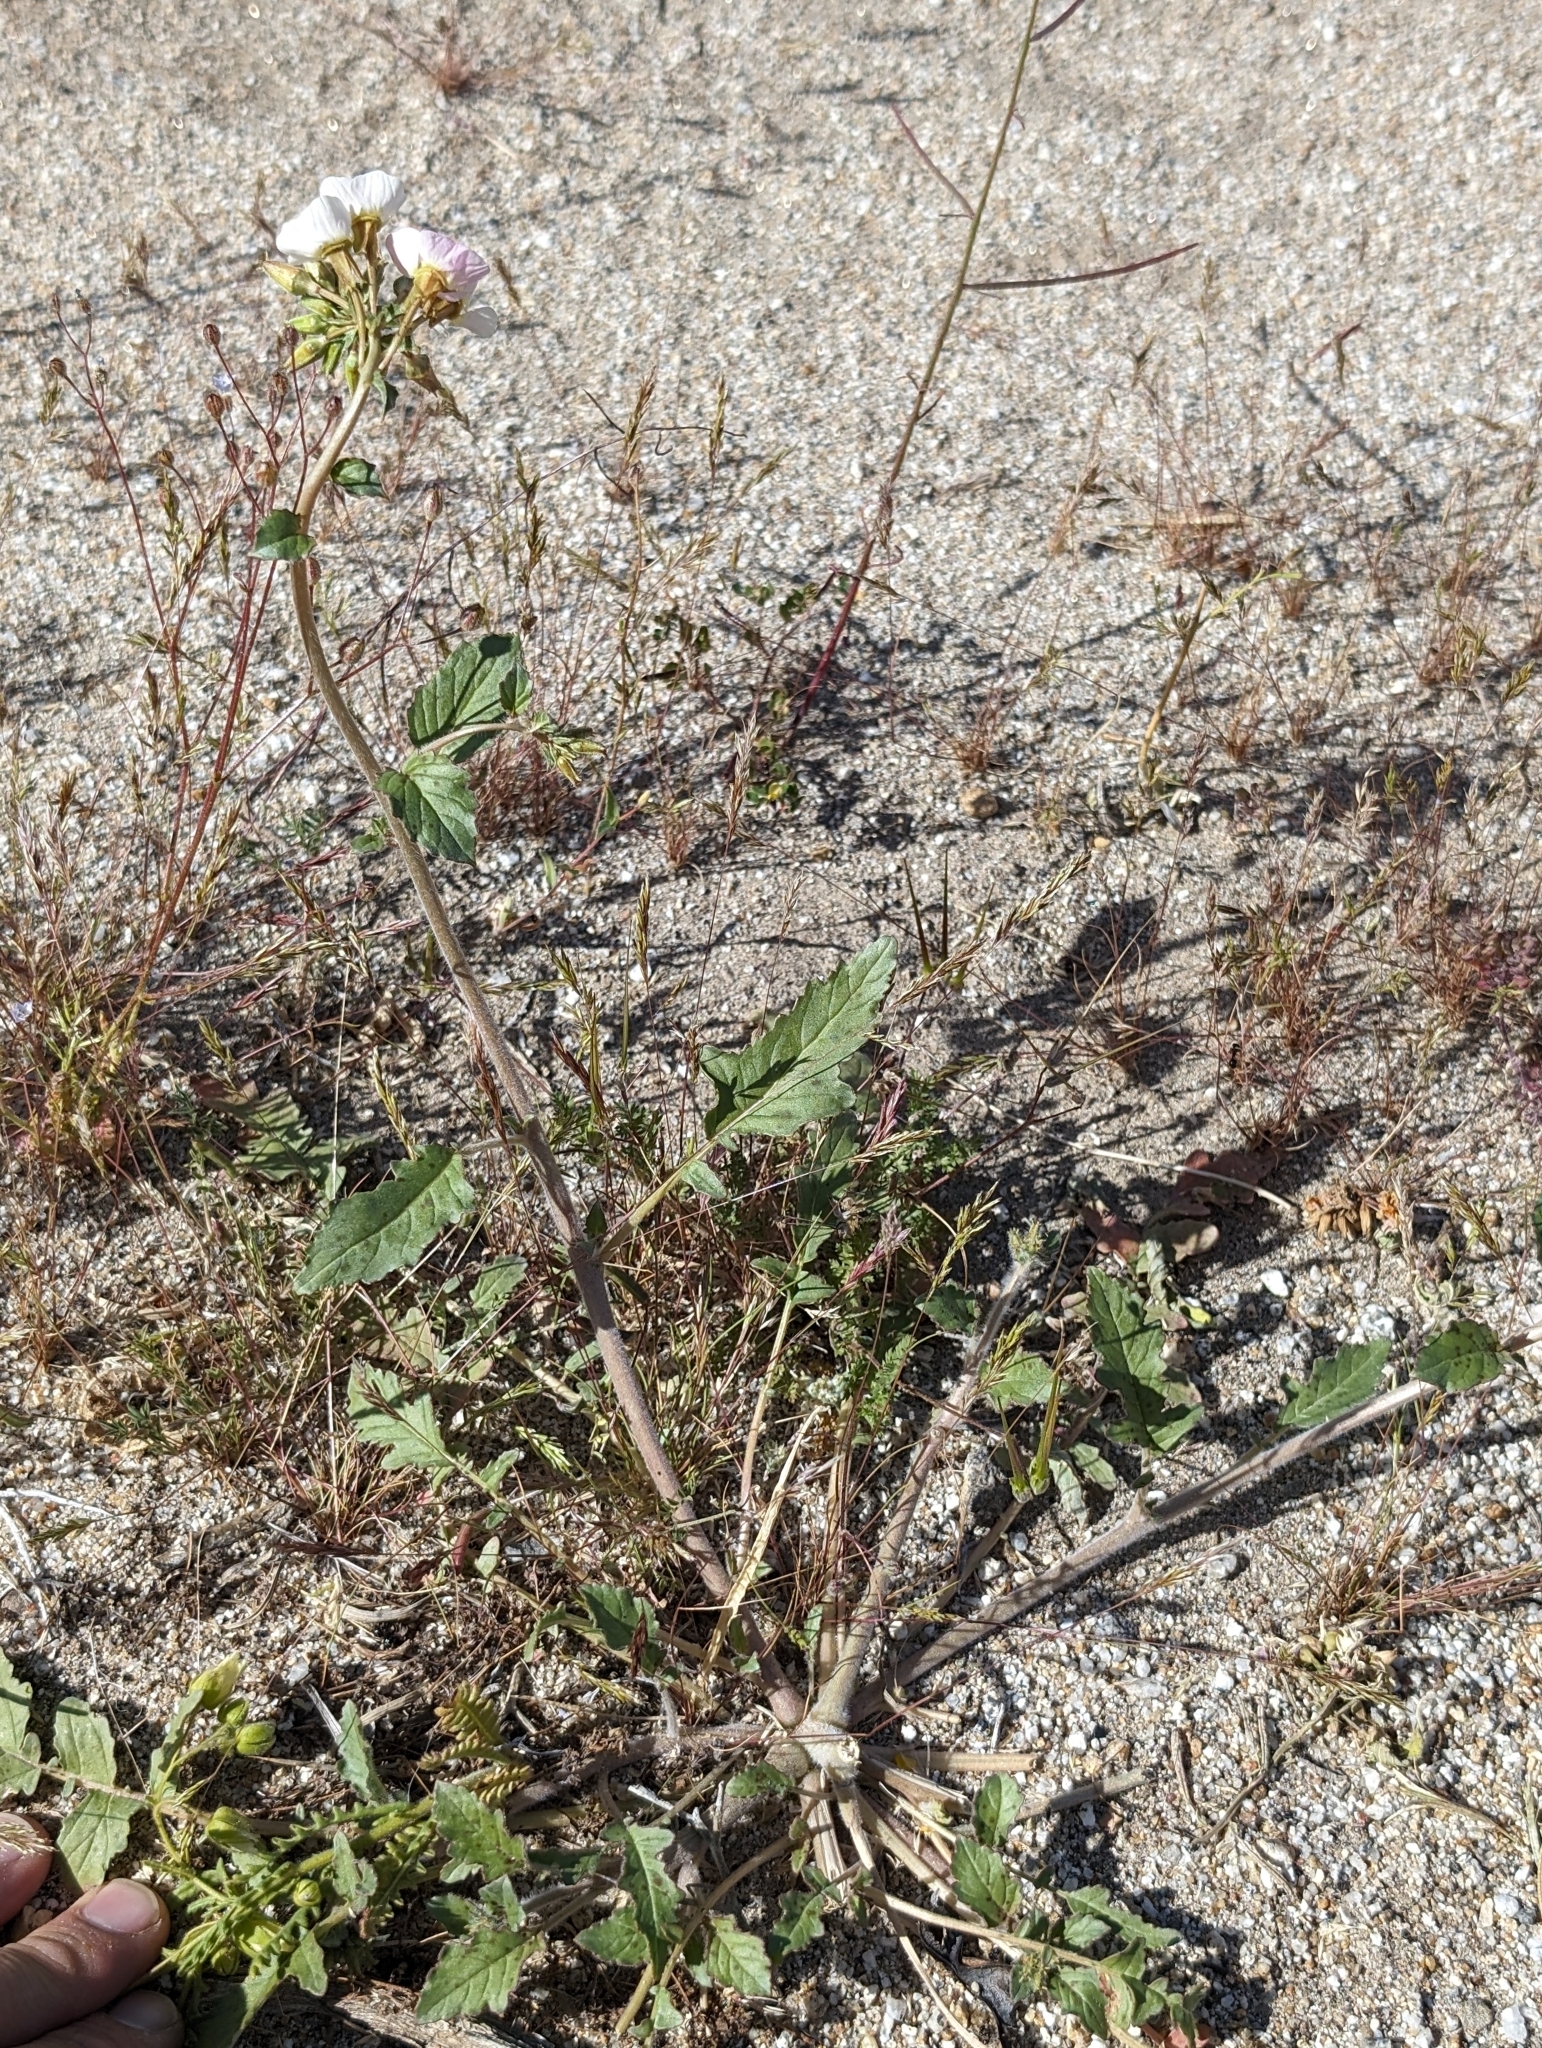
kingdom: Plantae
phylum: Tracheophyta
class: Magnoliopsida
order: Myrtales
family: Onagraceae
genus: Chylismia
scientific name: Chylismia claviformis
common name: Browneyes
